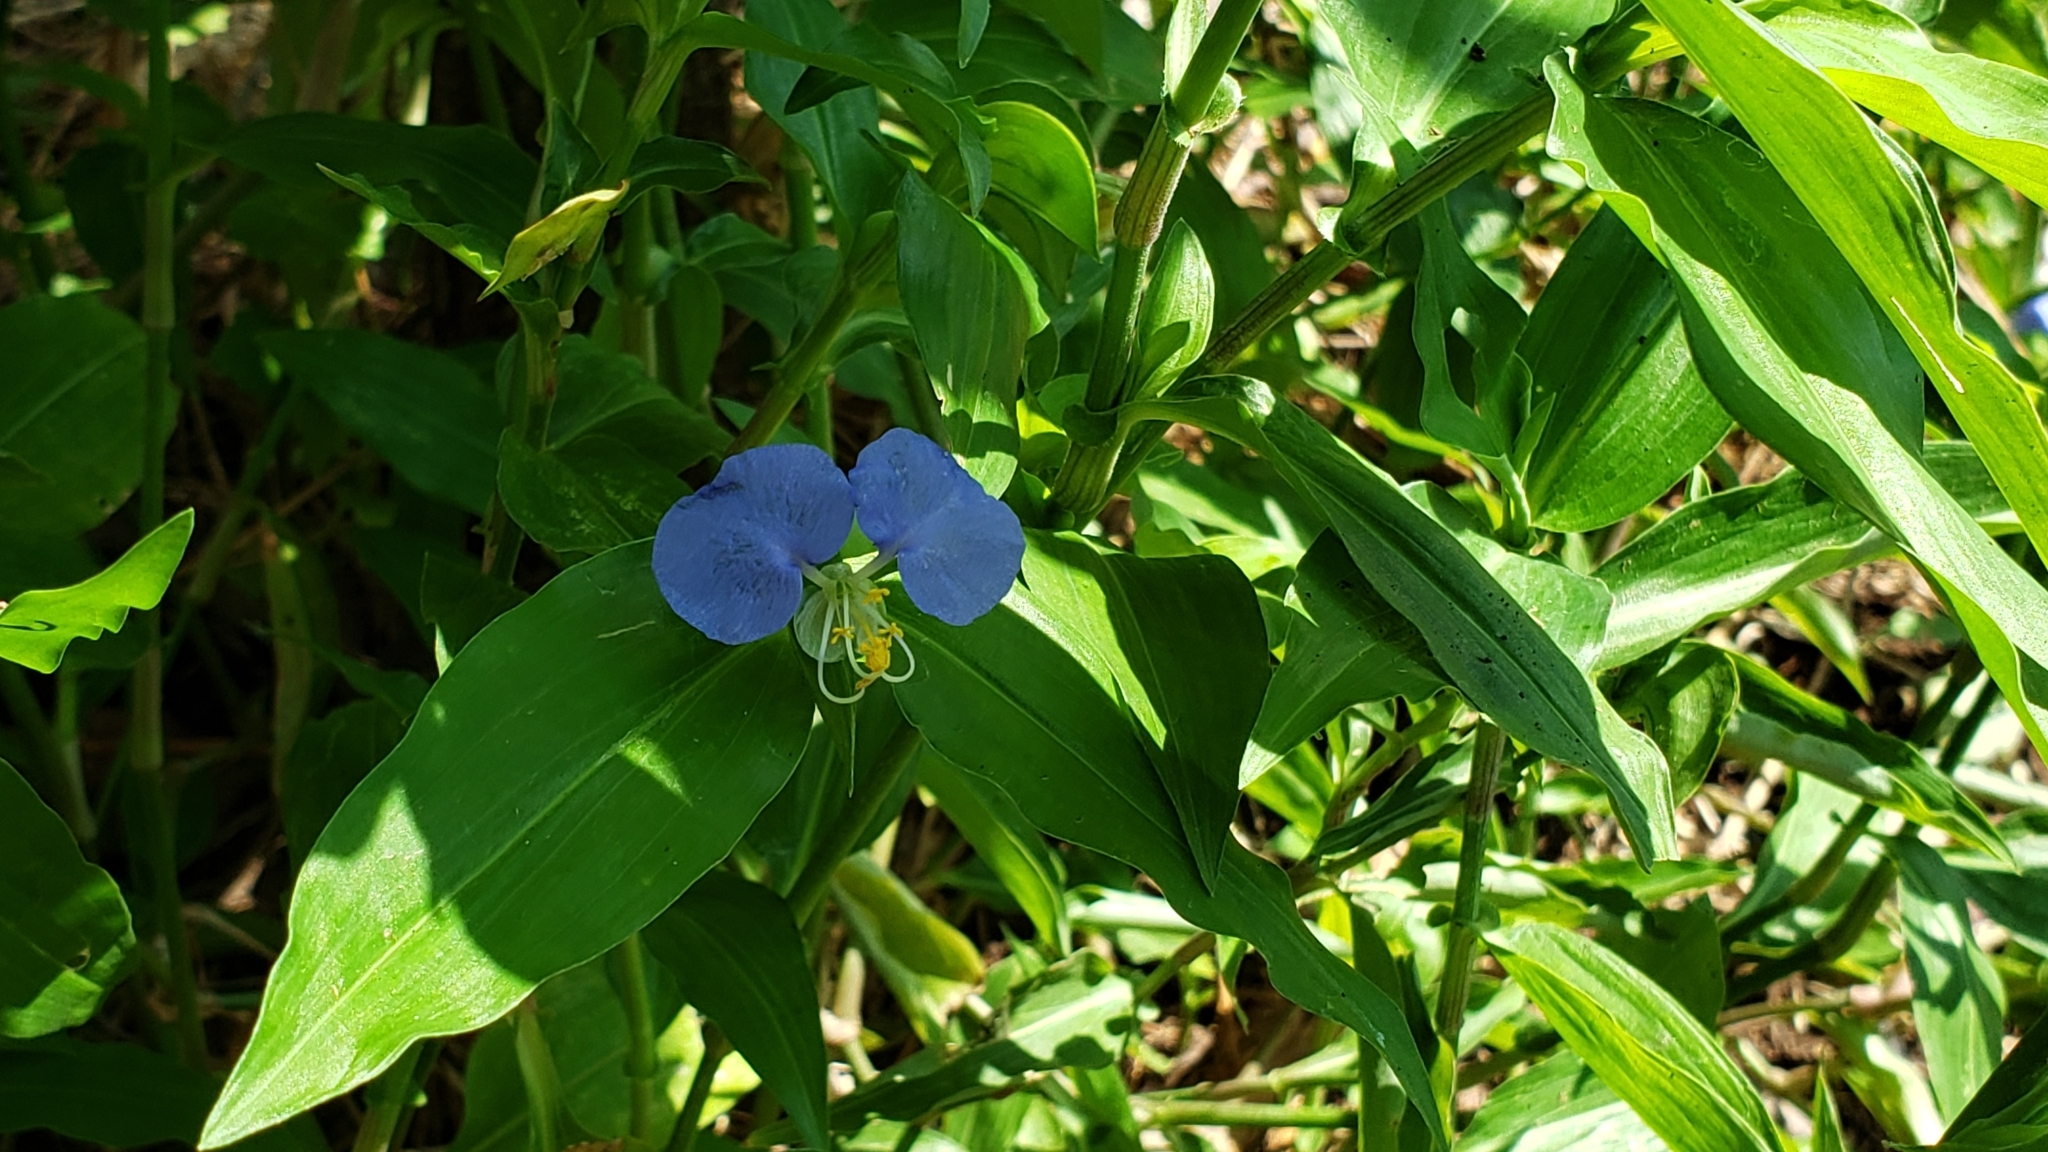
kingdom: Plantae
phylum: Tracheophyta
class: Liliopsida
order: Commelinales
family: Commelinaceae
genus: Commelina
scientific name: Commelina erecta
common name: Blousel blommetjie
